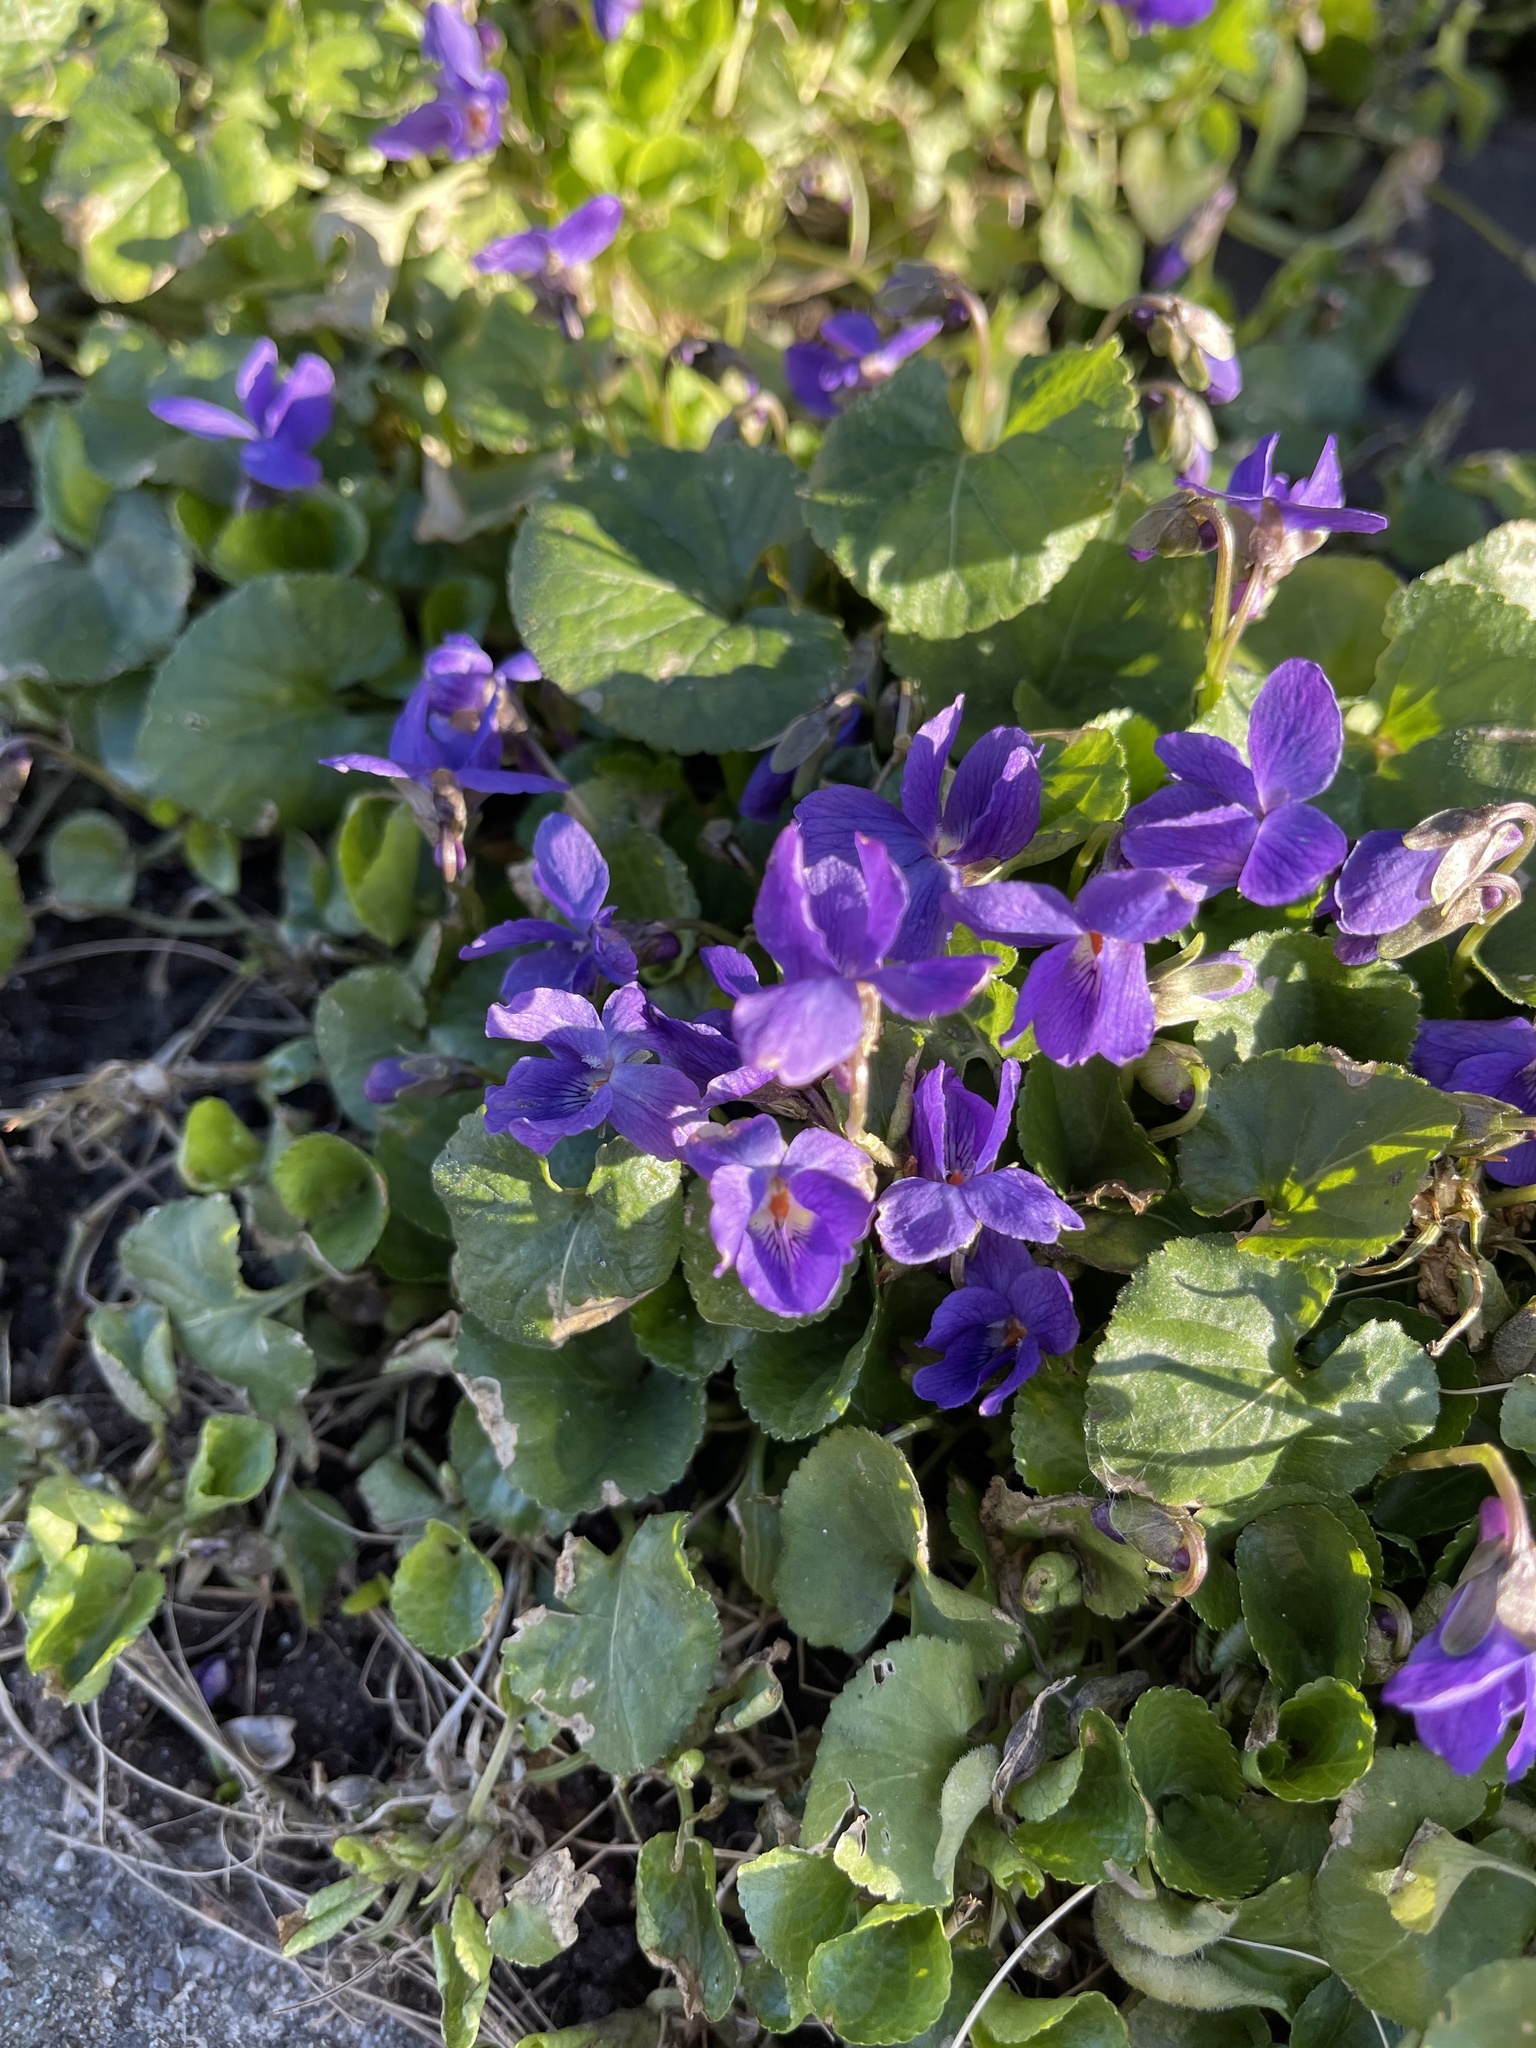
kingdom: Plantae
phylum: Tracheophyta
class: Magnoliopsida
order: Malpighiales
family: Violaceae
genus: Viola
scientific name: Viola odorata
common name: Sweet violet
